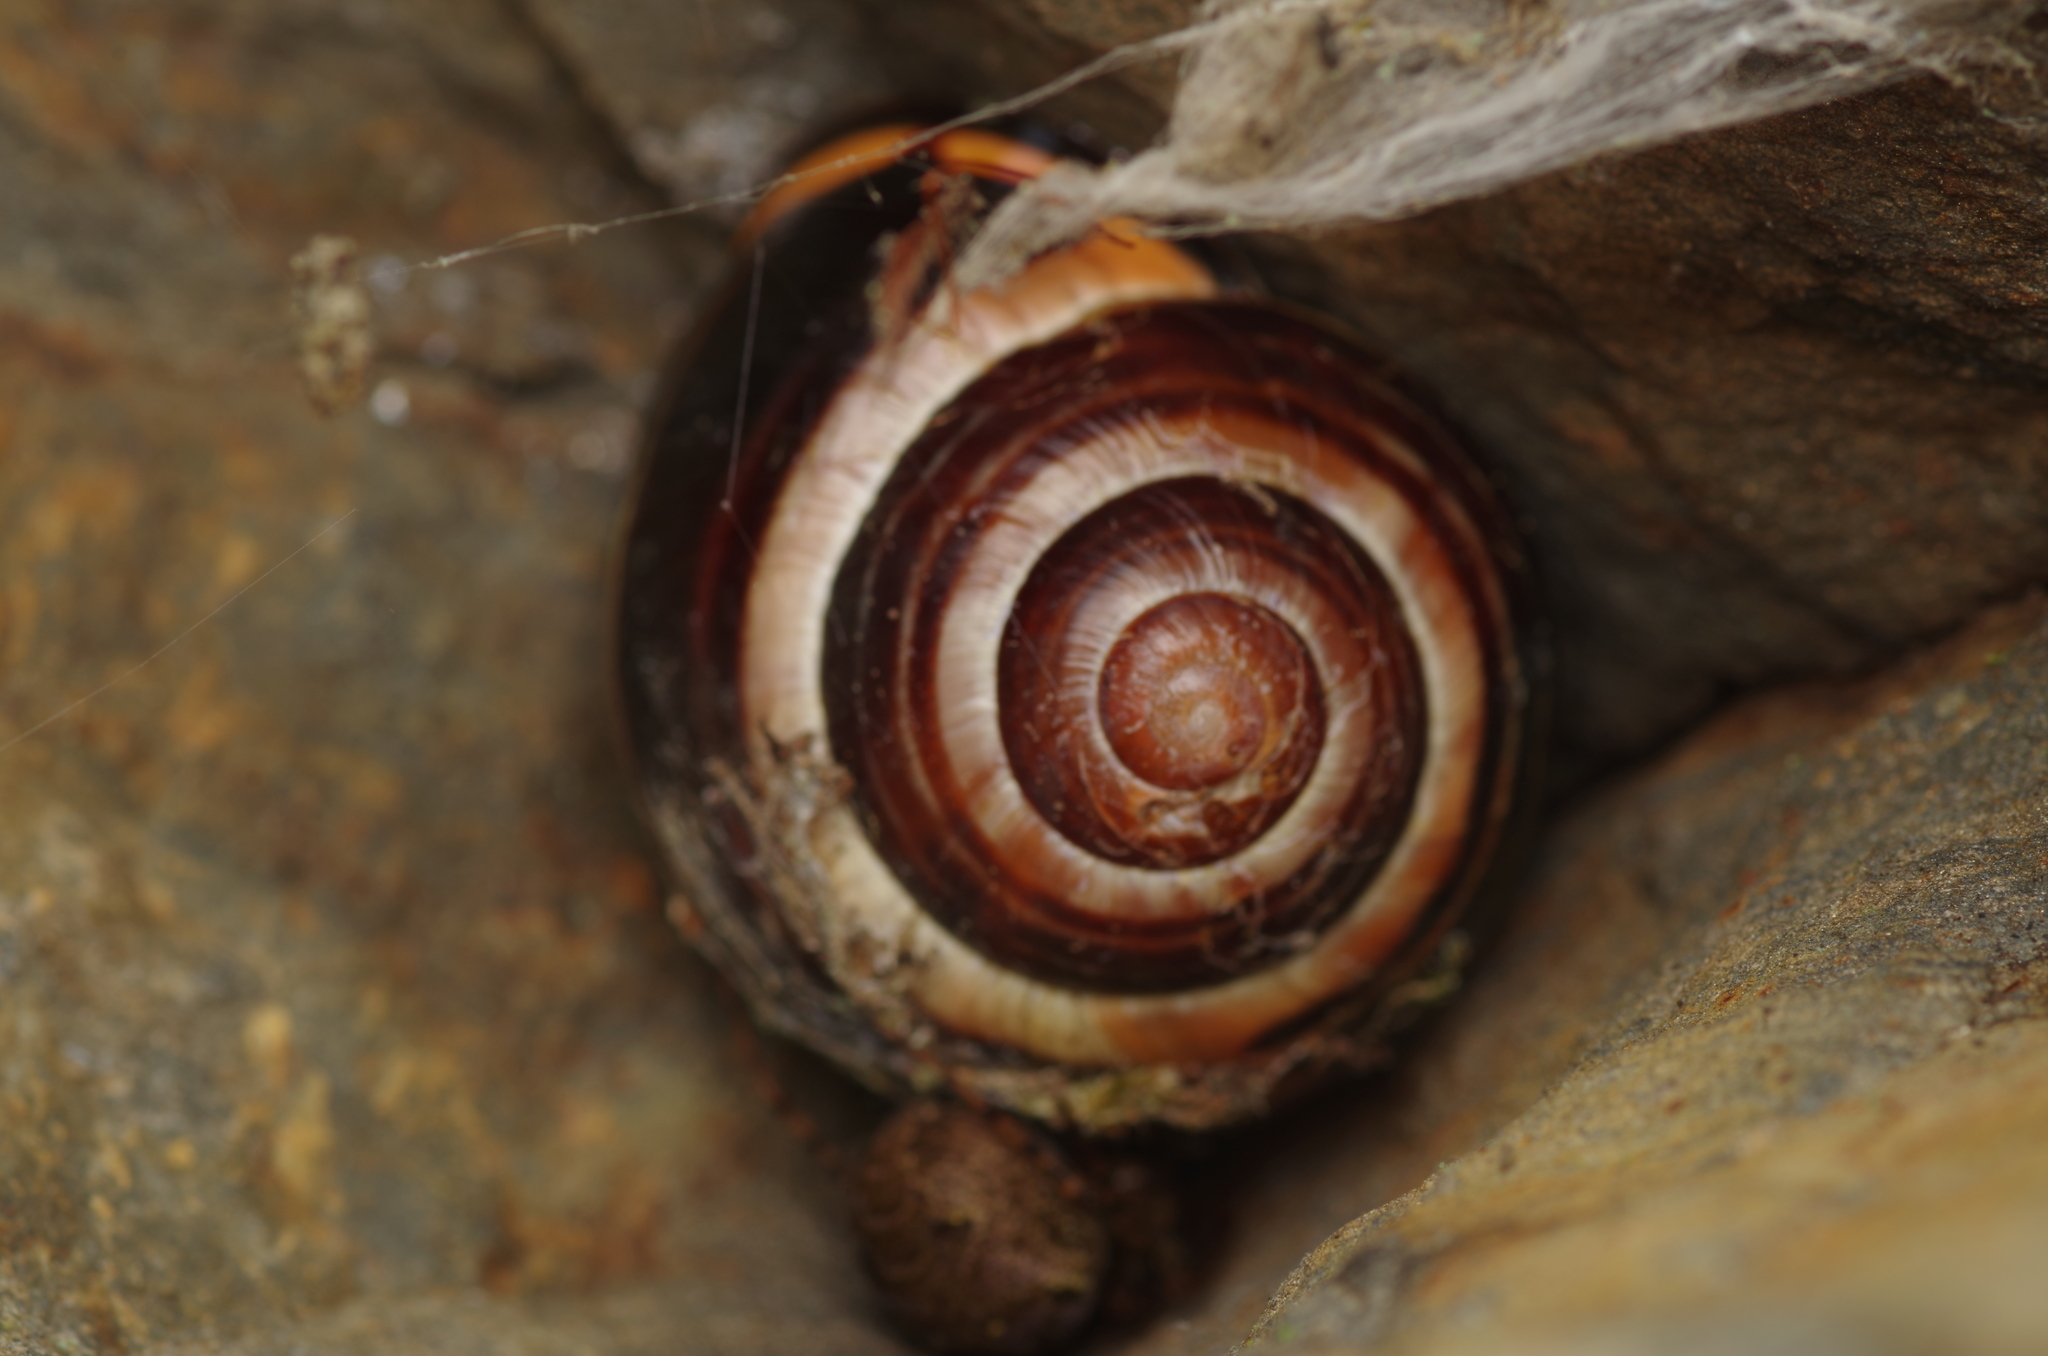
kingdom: Animalia
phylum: Mollusca
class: Gastropoda
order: Stylommatophora
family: Helicidae
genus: Cepaea
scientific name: Cepaea nemoralis
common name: Grovesnail
